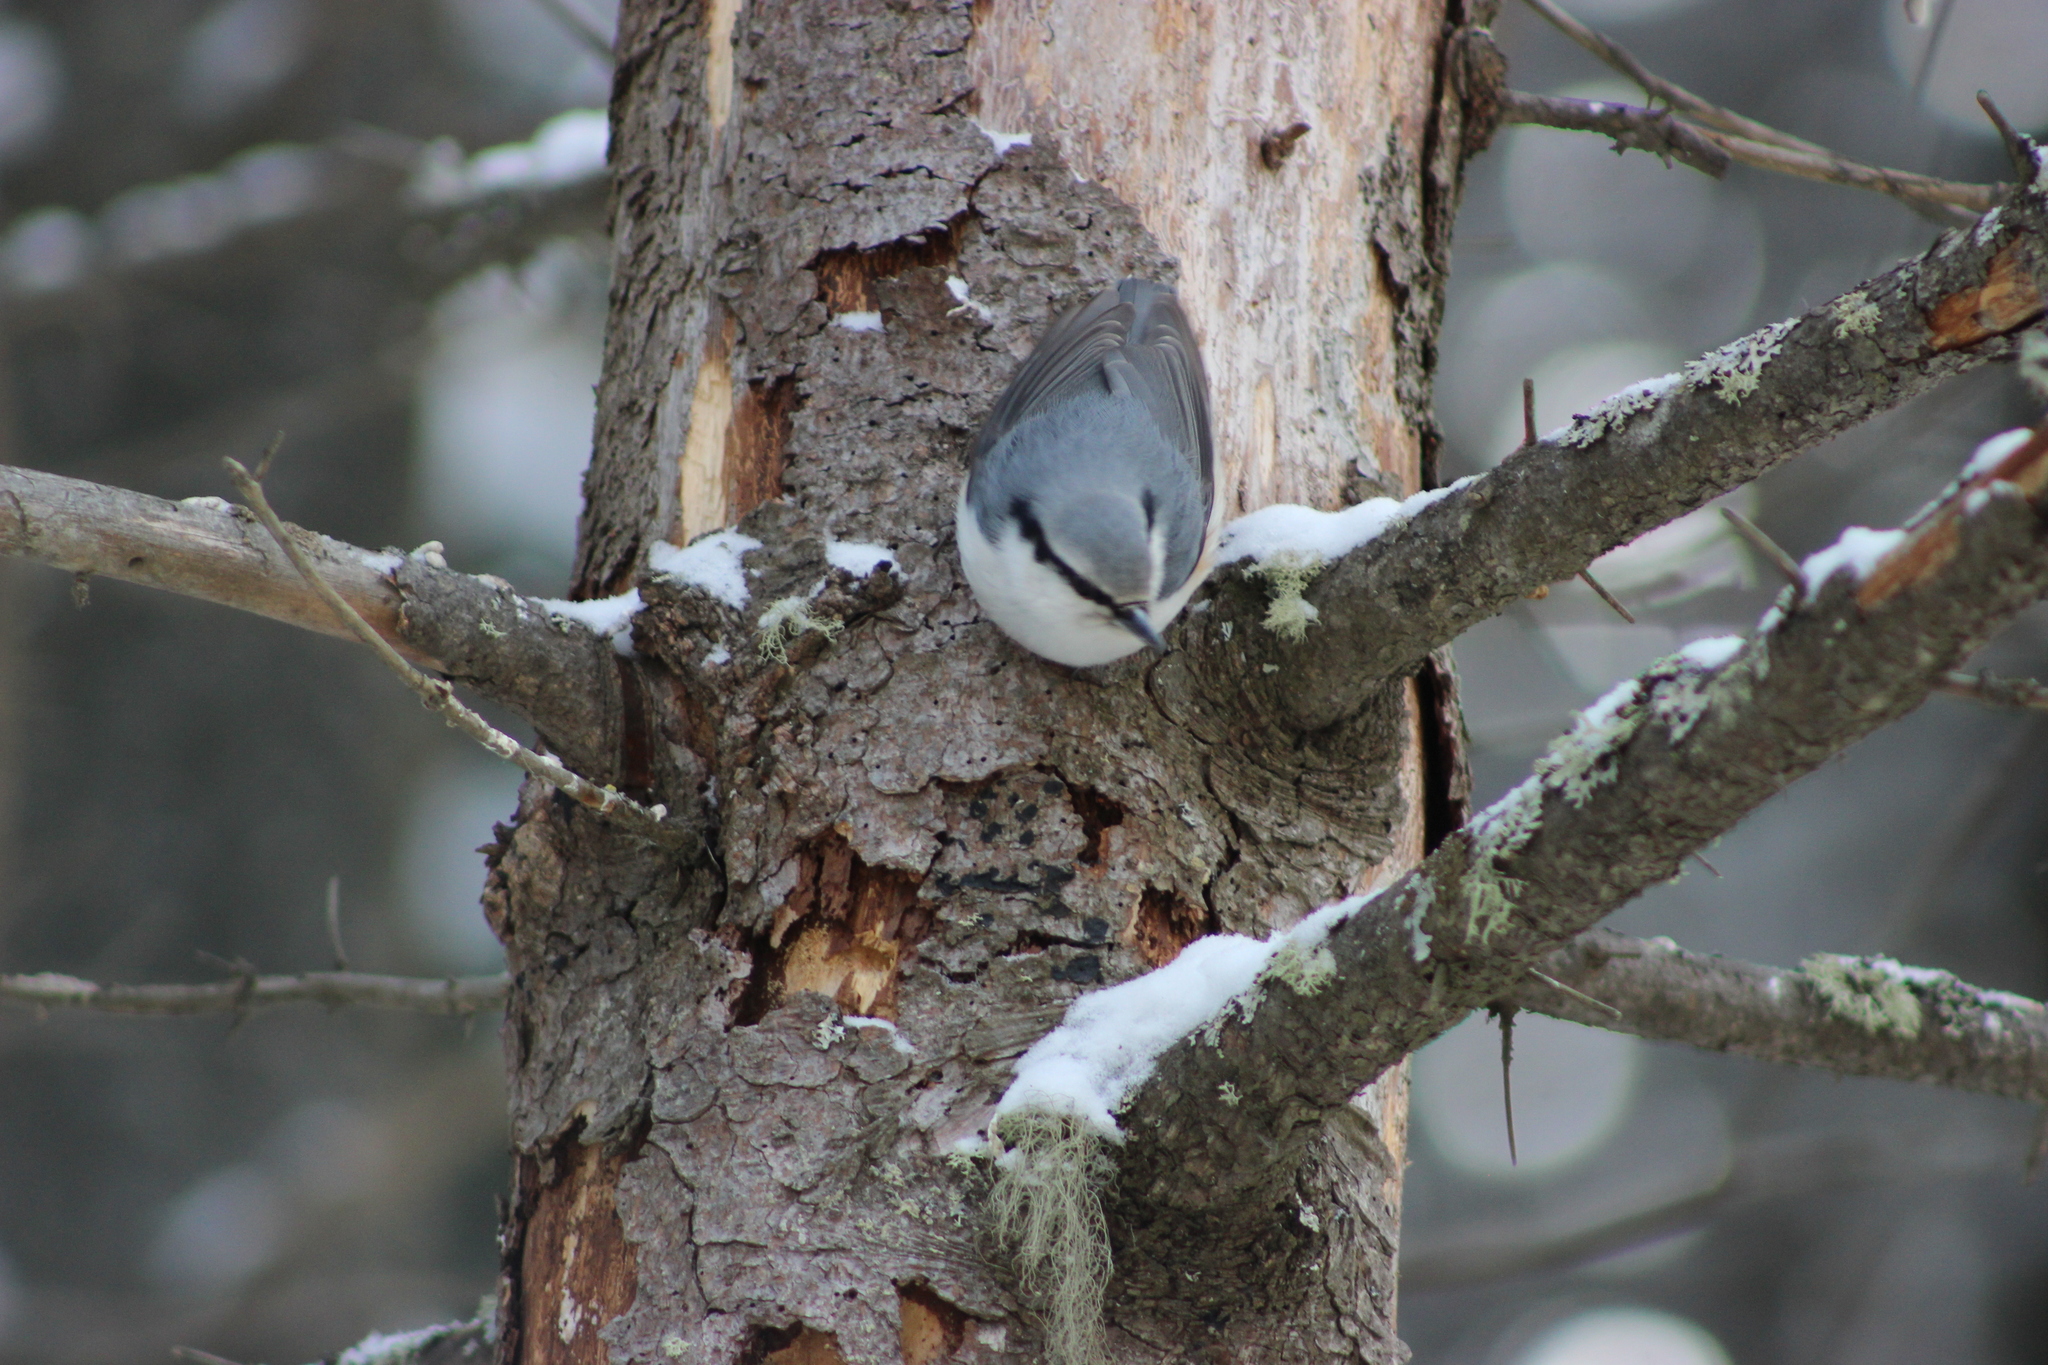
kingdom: Animalia
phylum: Chordata
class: Aves
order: Passeriformes
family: Sittidae
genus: Sitta
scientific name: Sitta europaea
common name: Eurasian nuthatch
